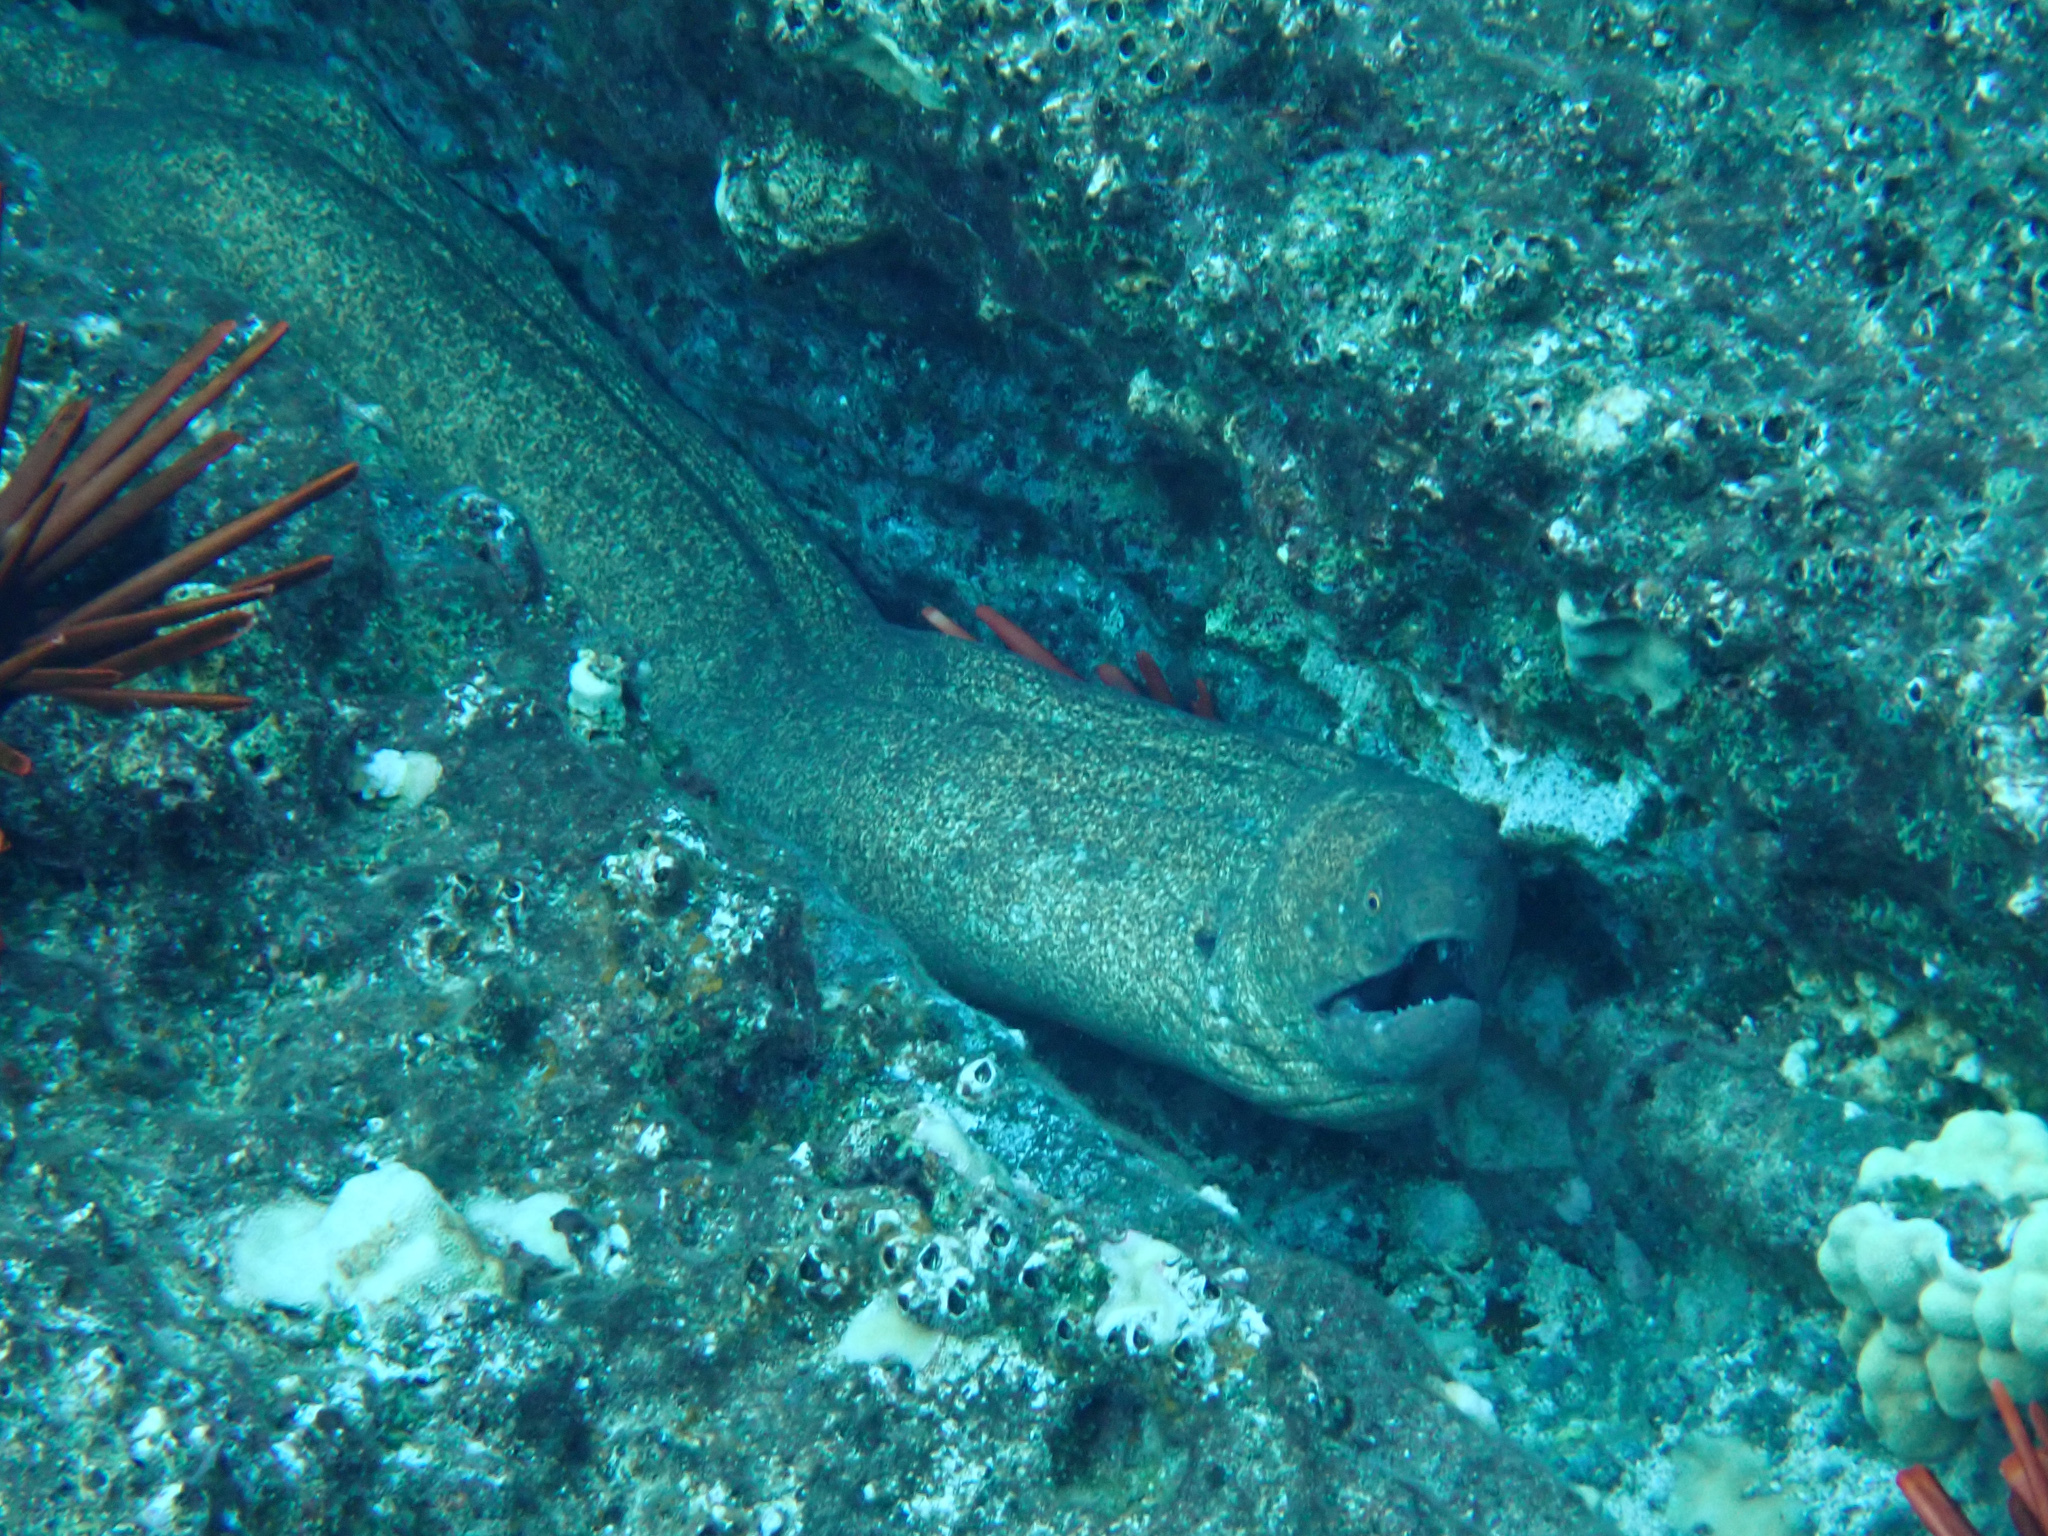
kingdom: Animalia
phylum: Chordata
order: Anguilliformes
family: Muraenidae
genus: Gymnothorax
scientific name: Gymnothorax flavimarginatus
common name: Yellow-edged moray
